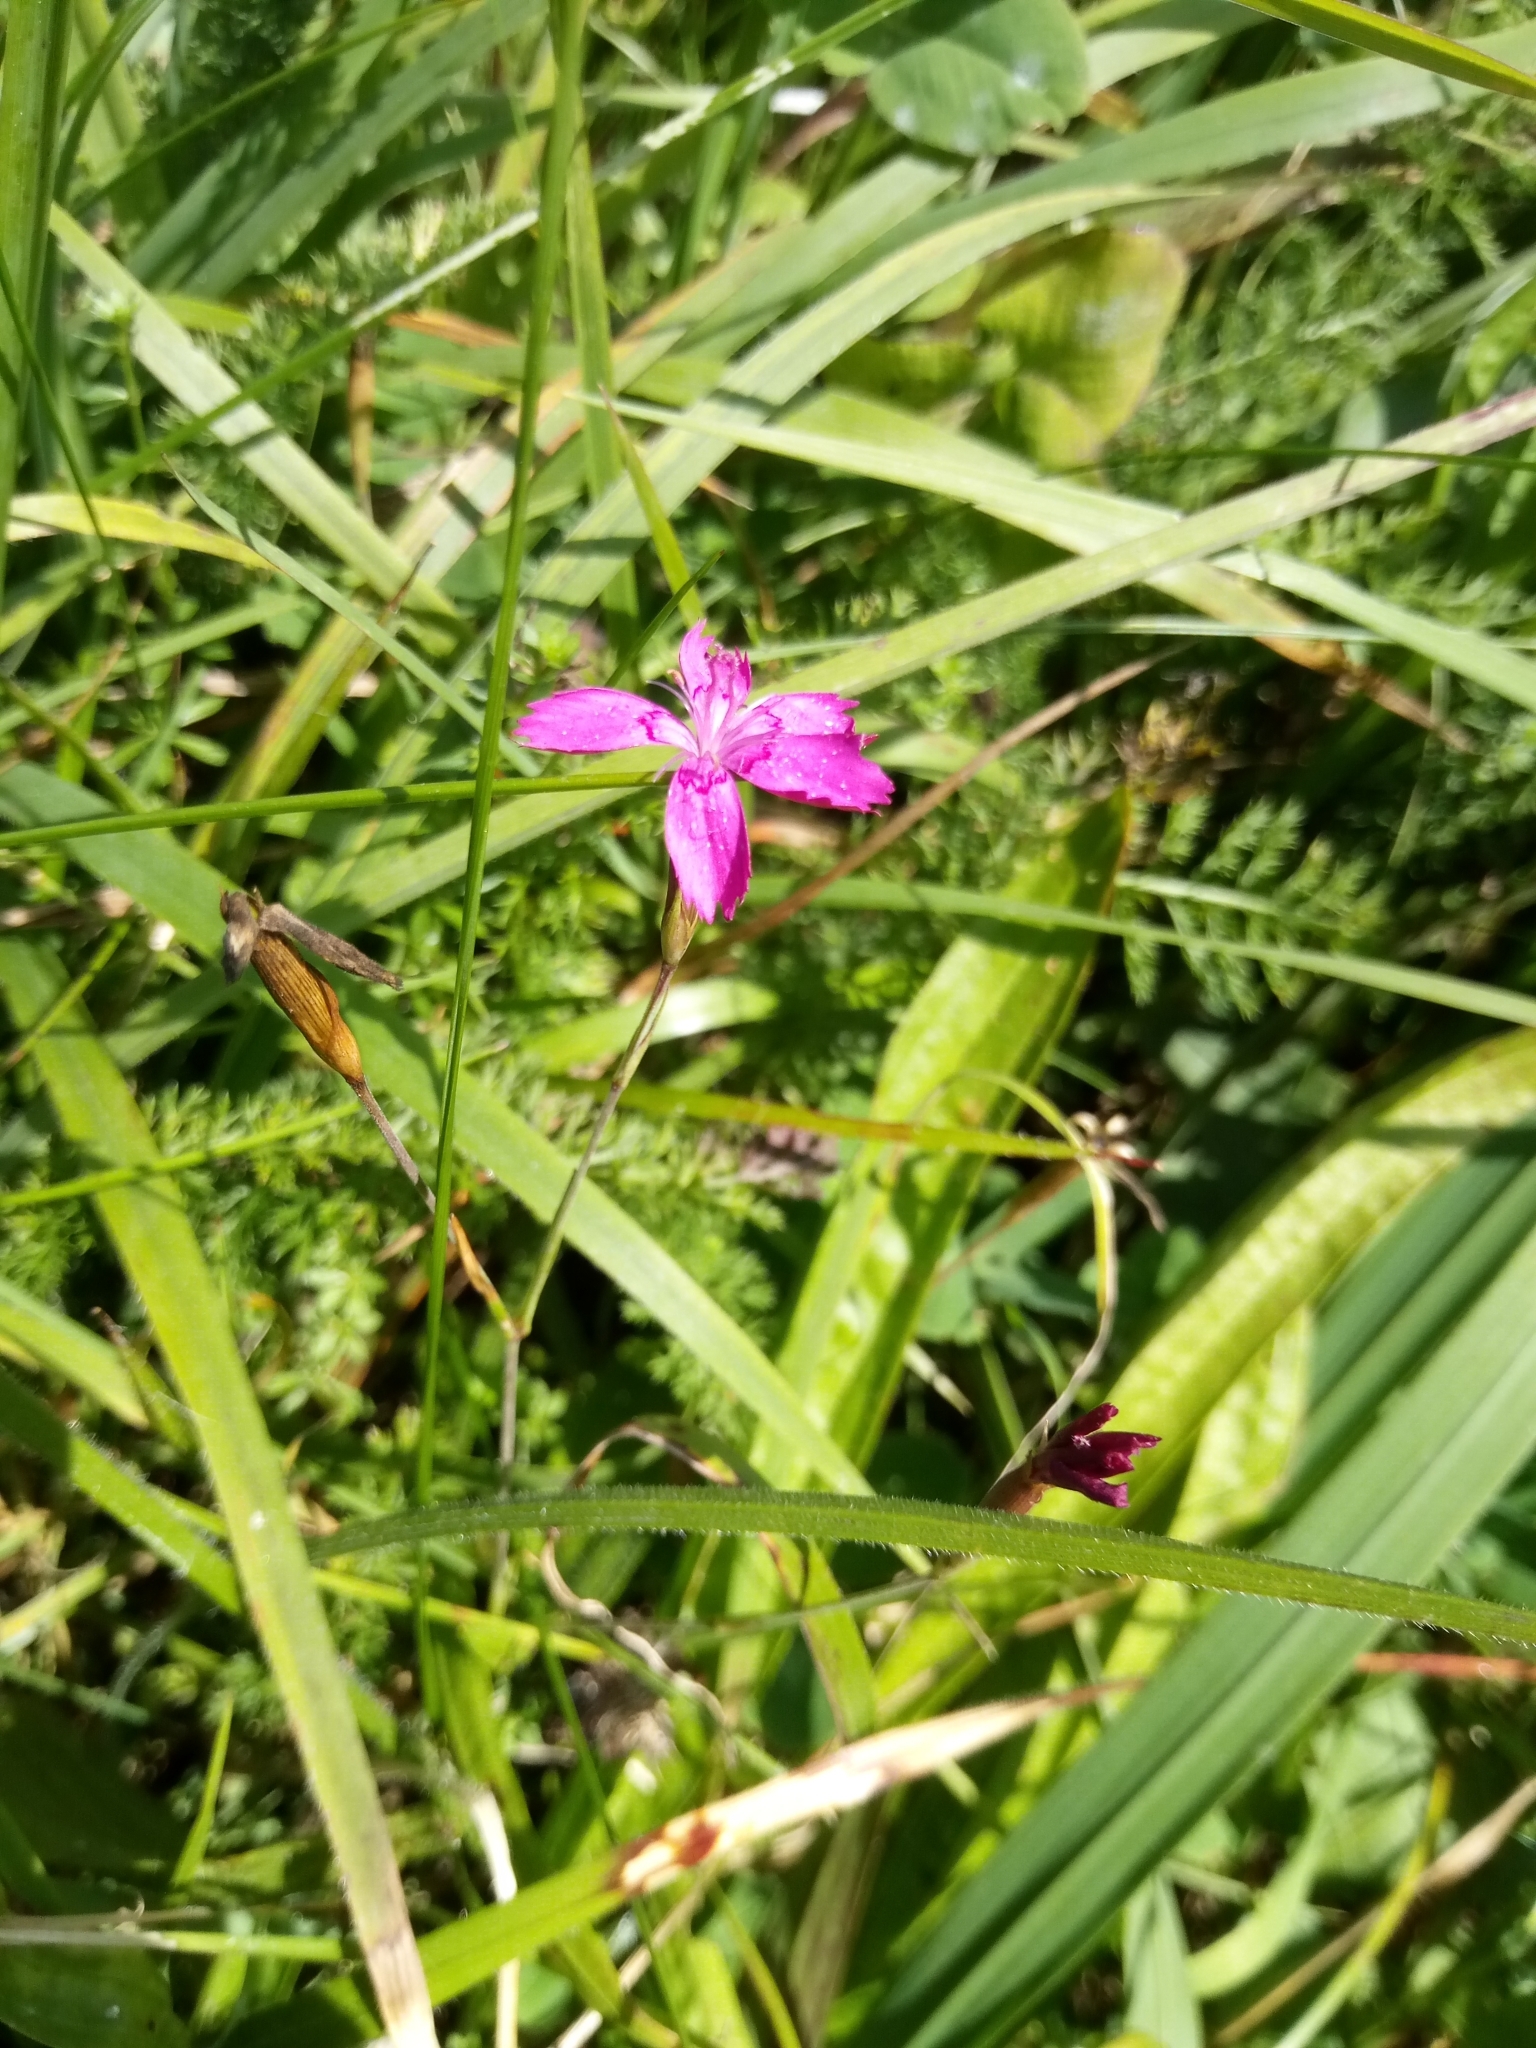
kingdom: Plantae
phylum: Tracheophyta
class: Magnoliopsida
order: Caryophyllales
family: Caryophyllaceae
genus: Dianthus
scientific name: Dianthus deltoides
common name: Maiden pink
